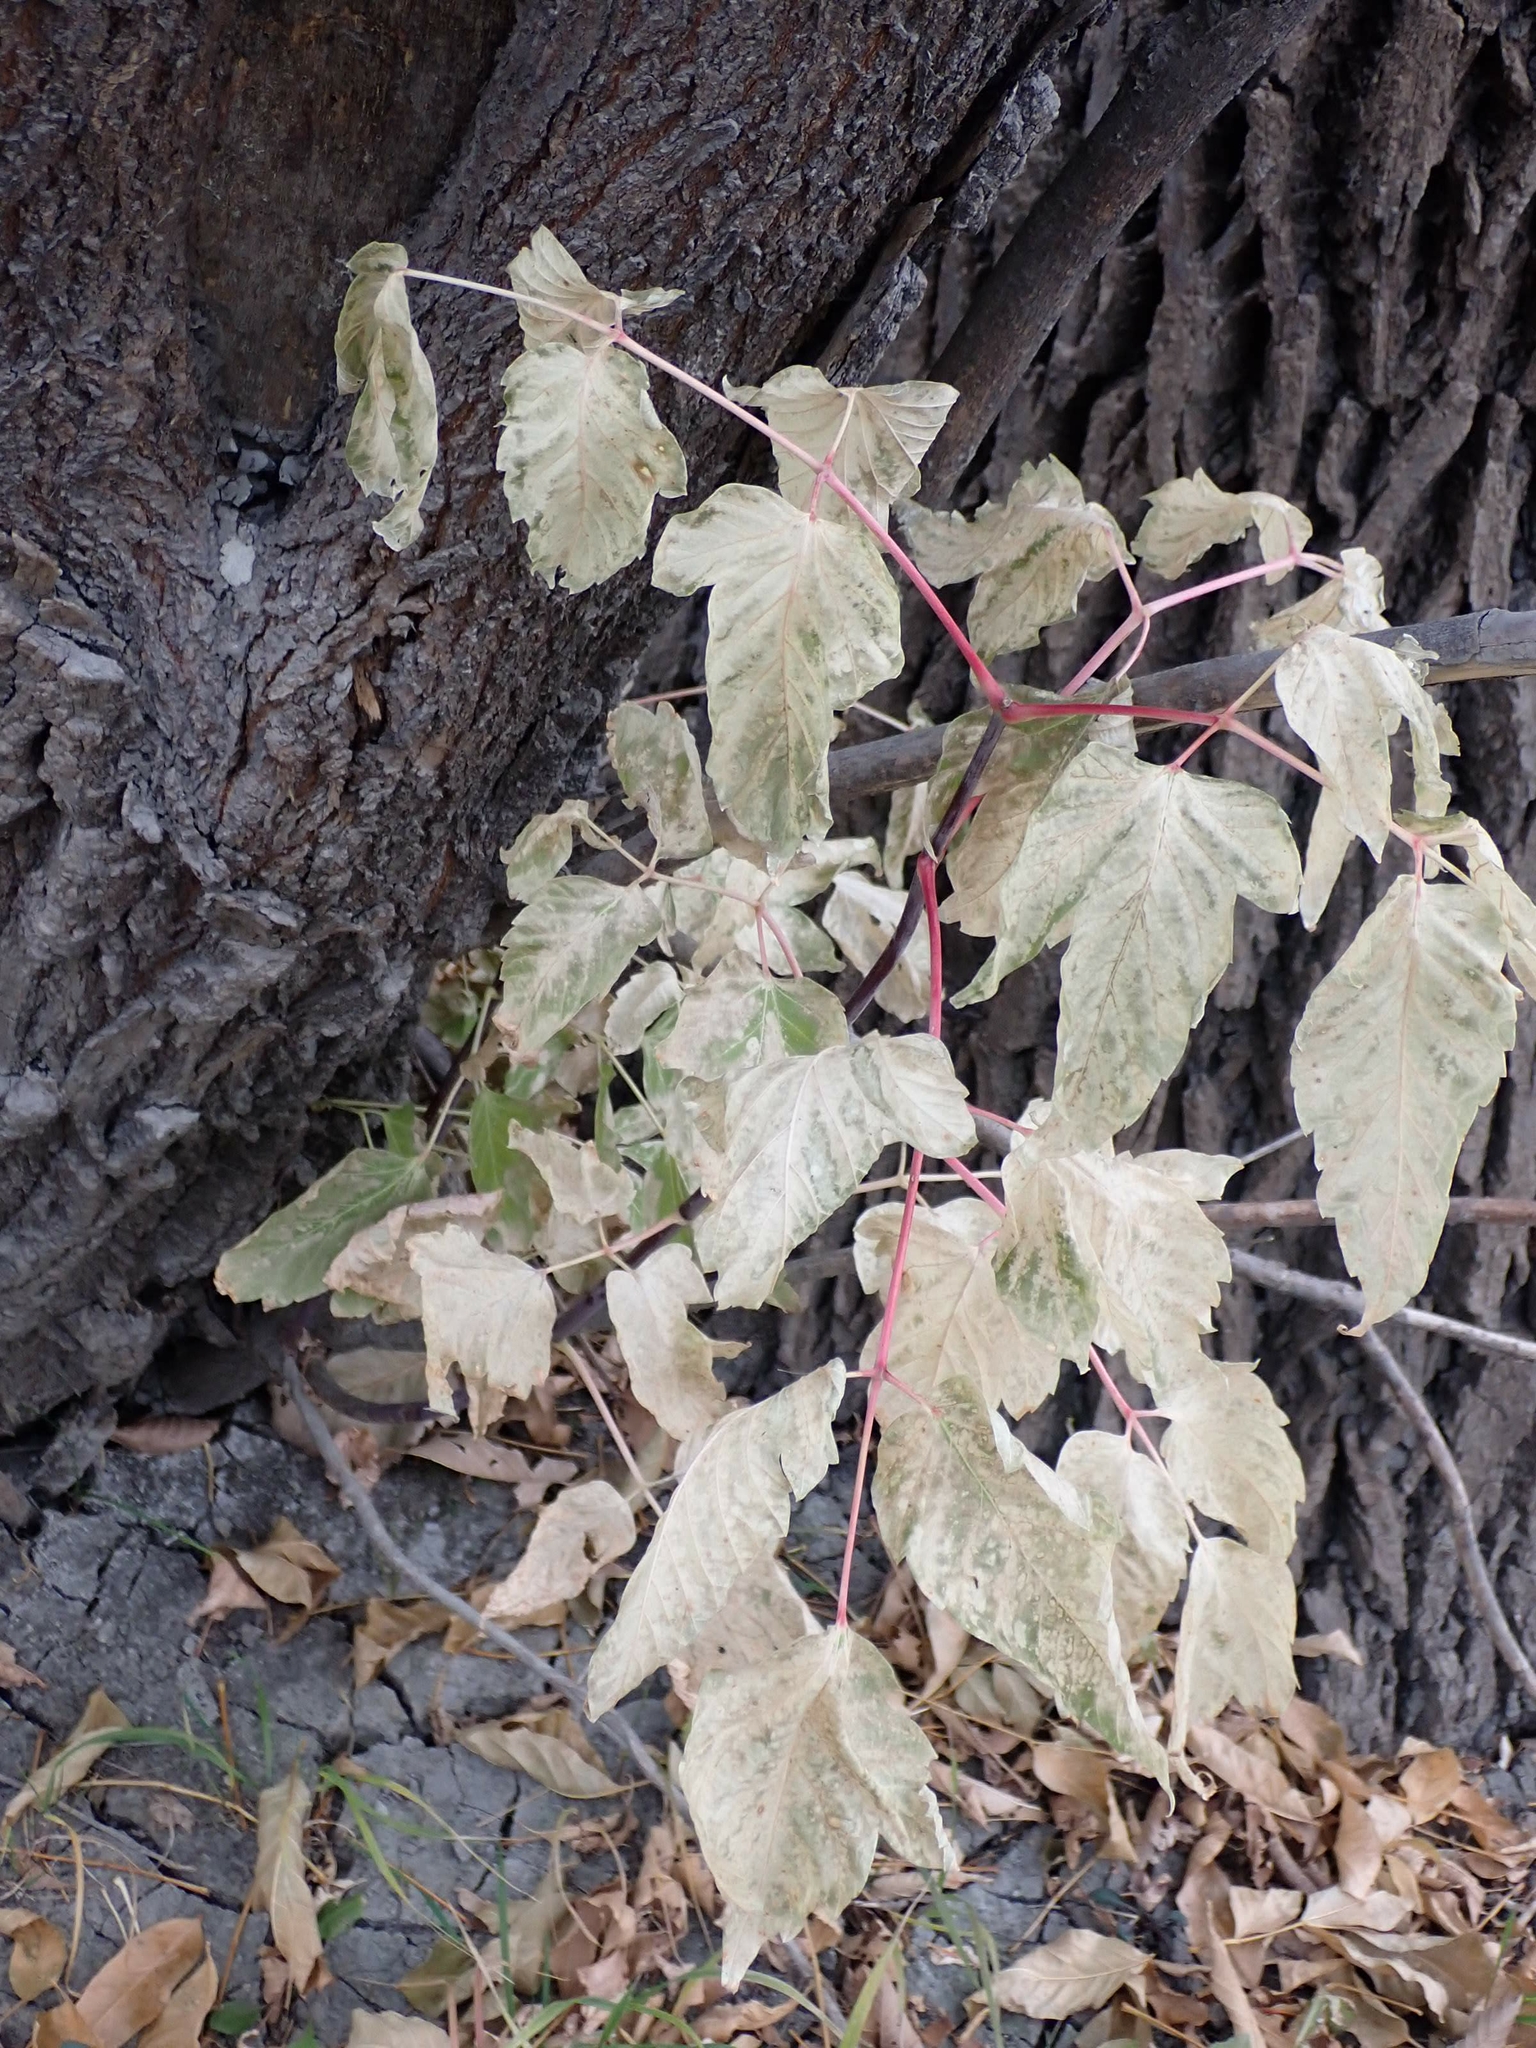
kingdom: Plantae
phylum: Tracheophyta
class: Magnoliopsida
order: Sapindales
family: Sapindaceae
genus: Acer
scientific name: Acer negundo
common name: Ashleaf maple
